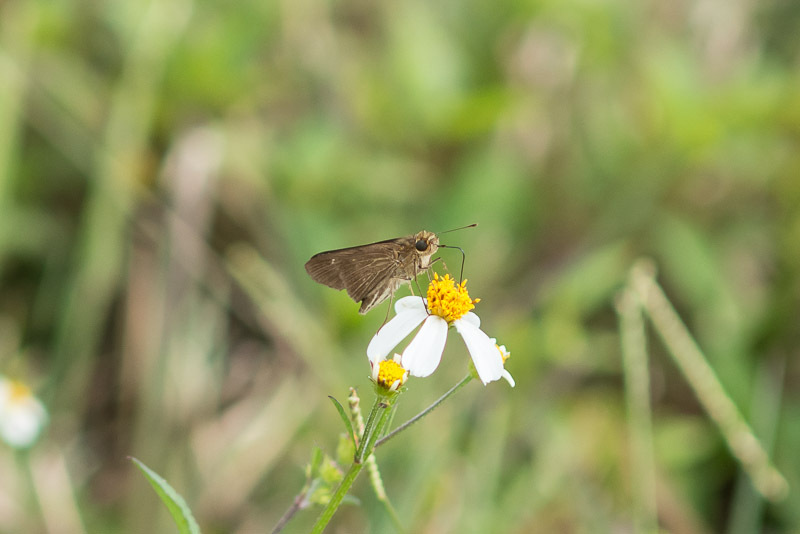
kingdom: Animalia
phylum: Arthropoda
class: Insecta
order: Lepidoptera
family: Hesperiidae
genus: Panoquina
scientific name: Panoquina ocola
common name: Ocola skipper
